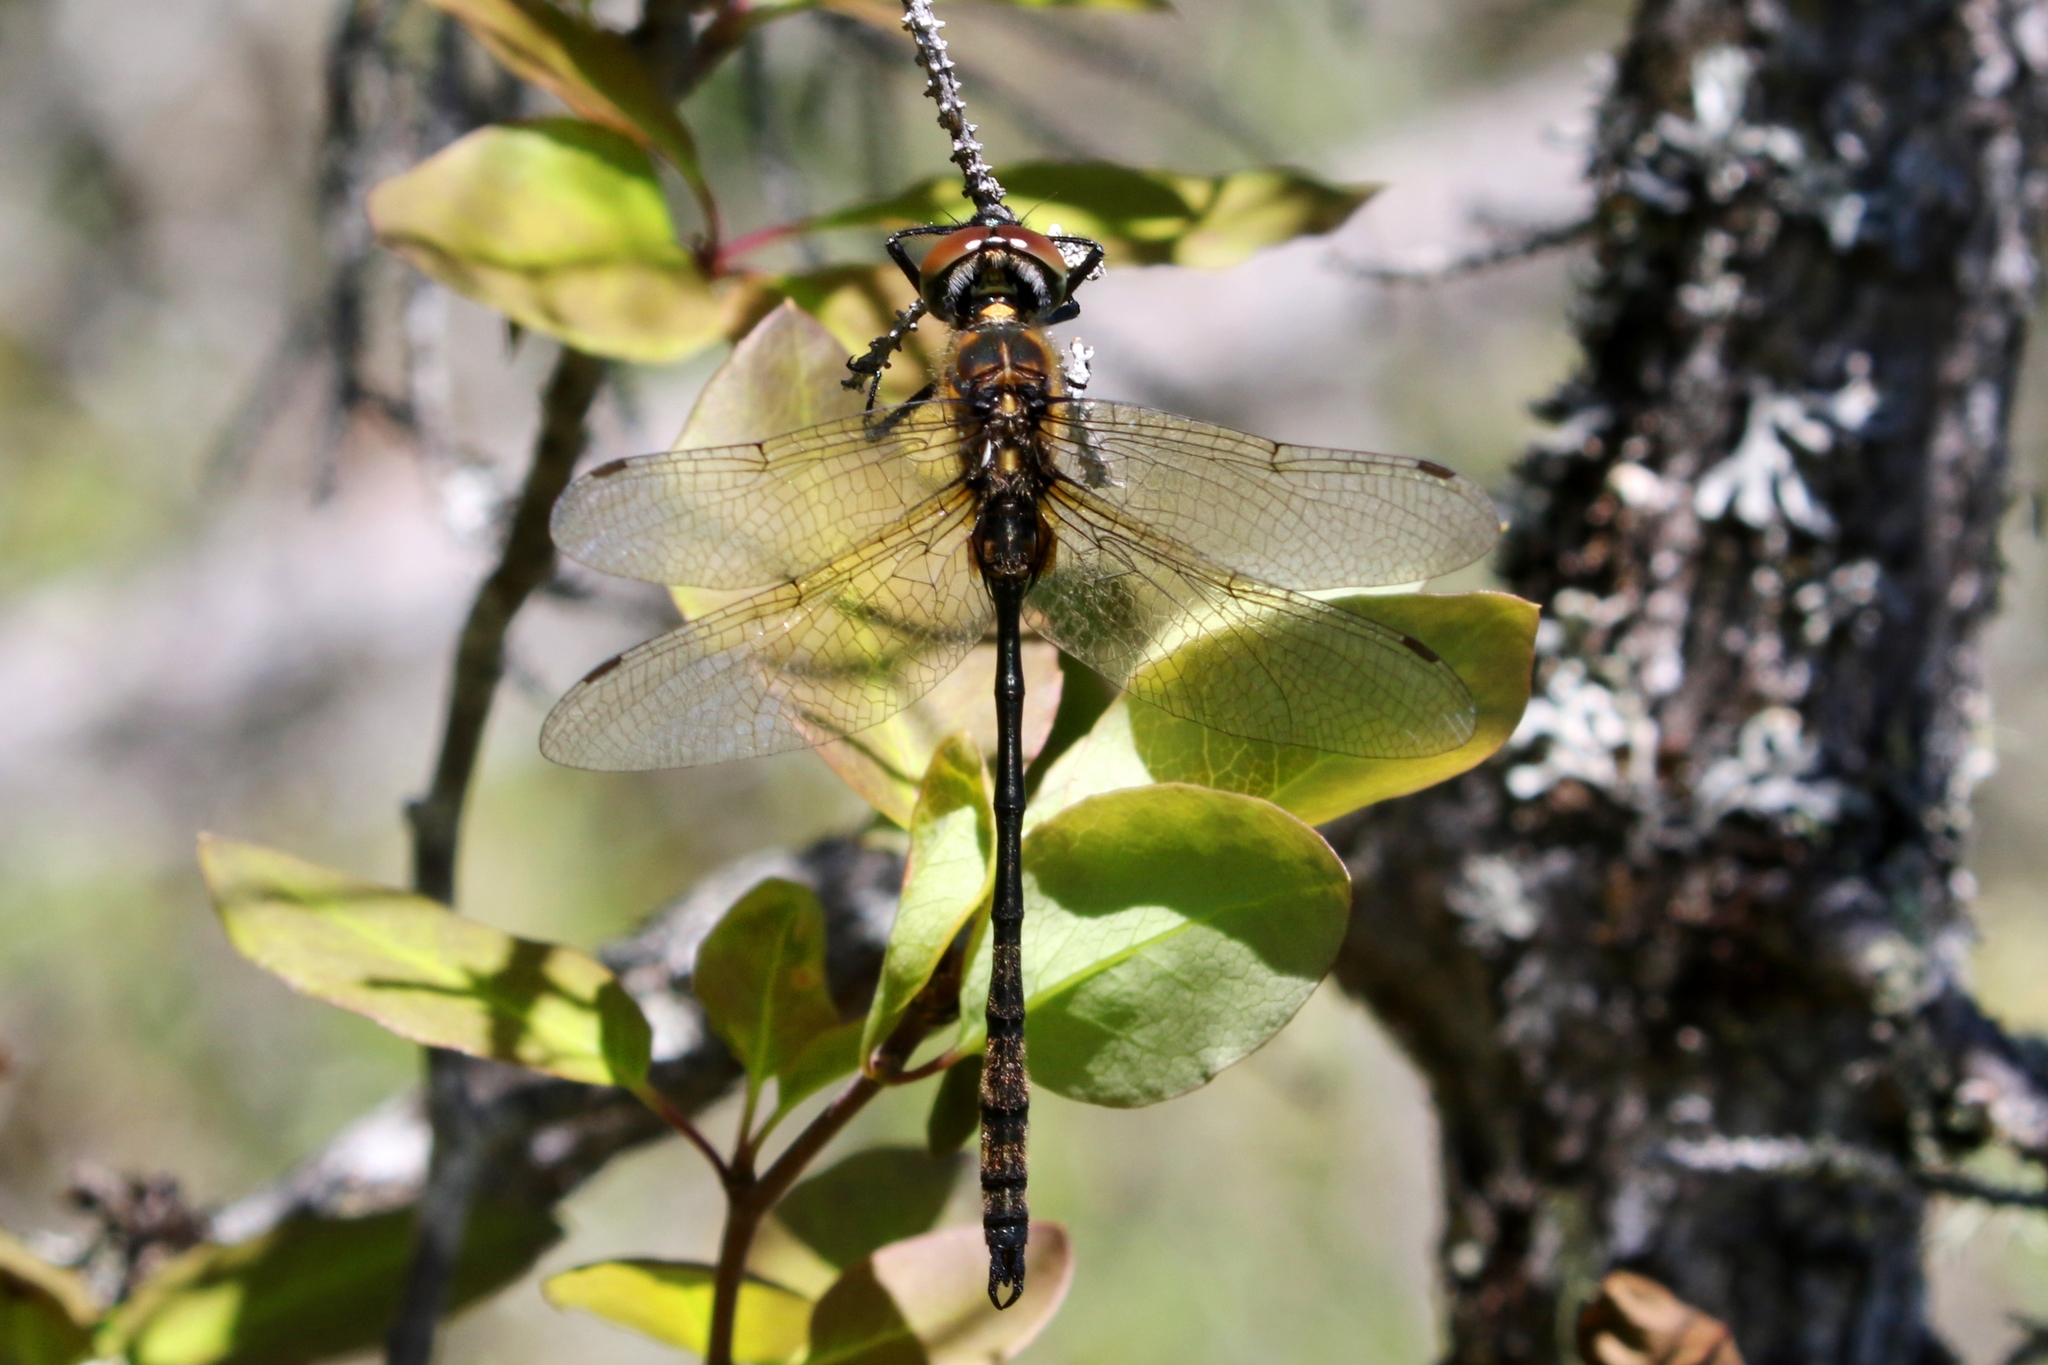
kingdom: Animalia
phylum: Arthropoda
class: Insecta
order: Odonata
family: Corduliidae
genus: Somatochlora
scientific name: Somatochlora franklini
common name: Delicate emerald
